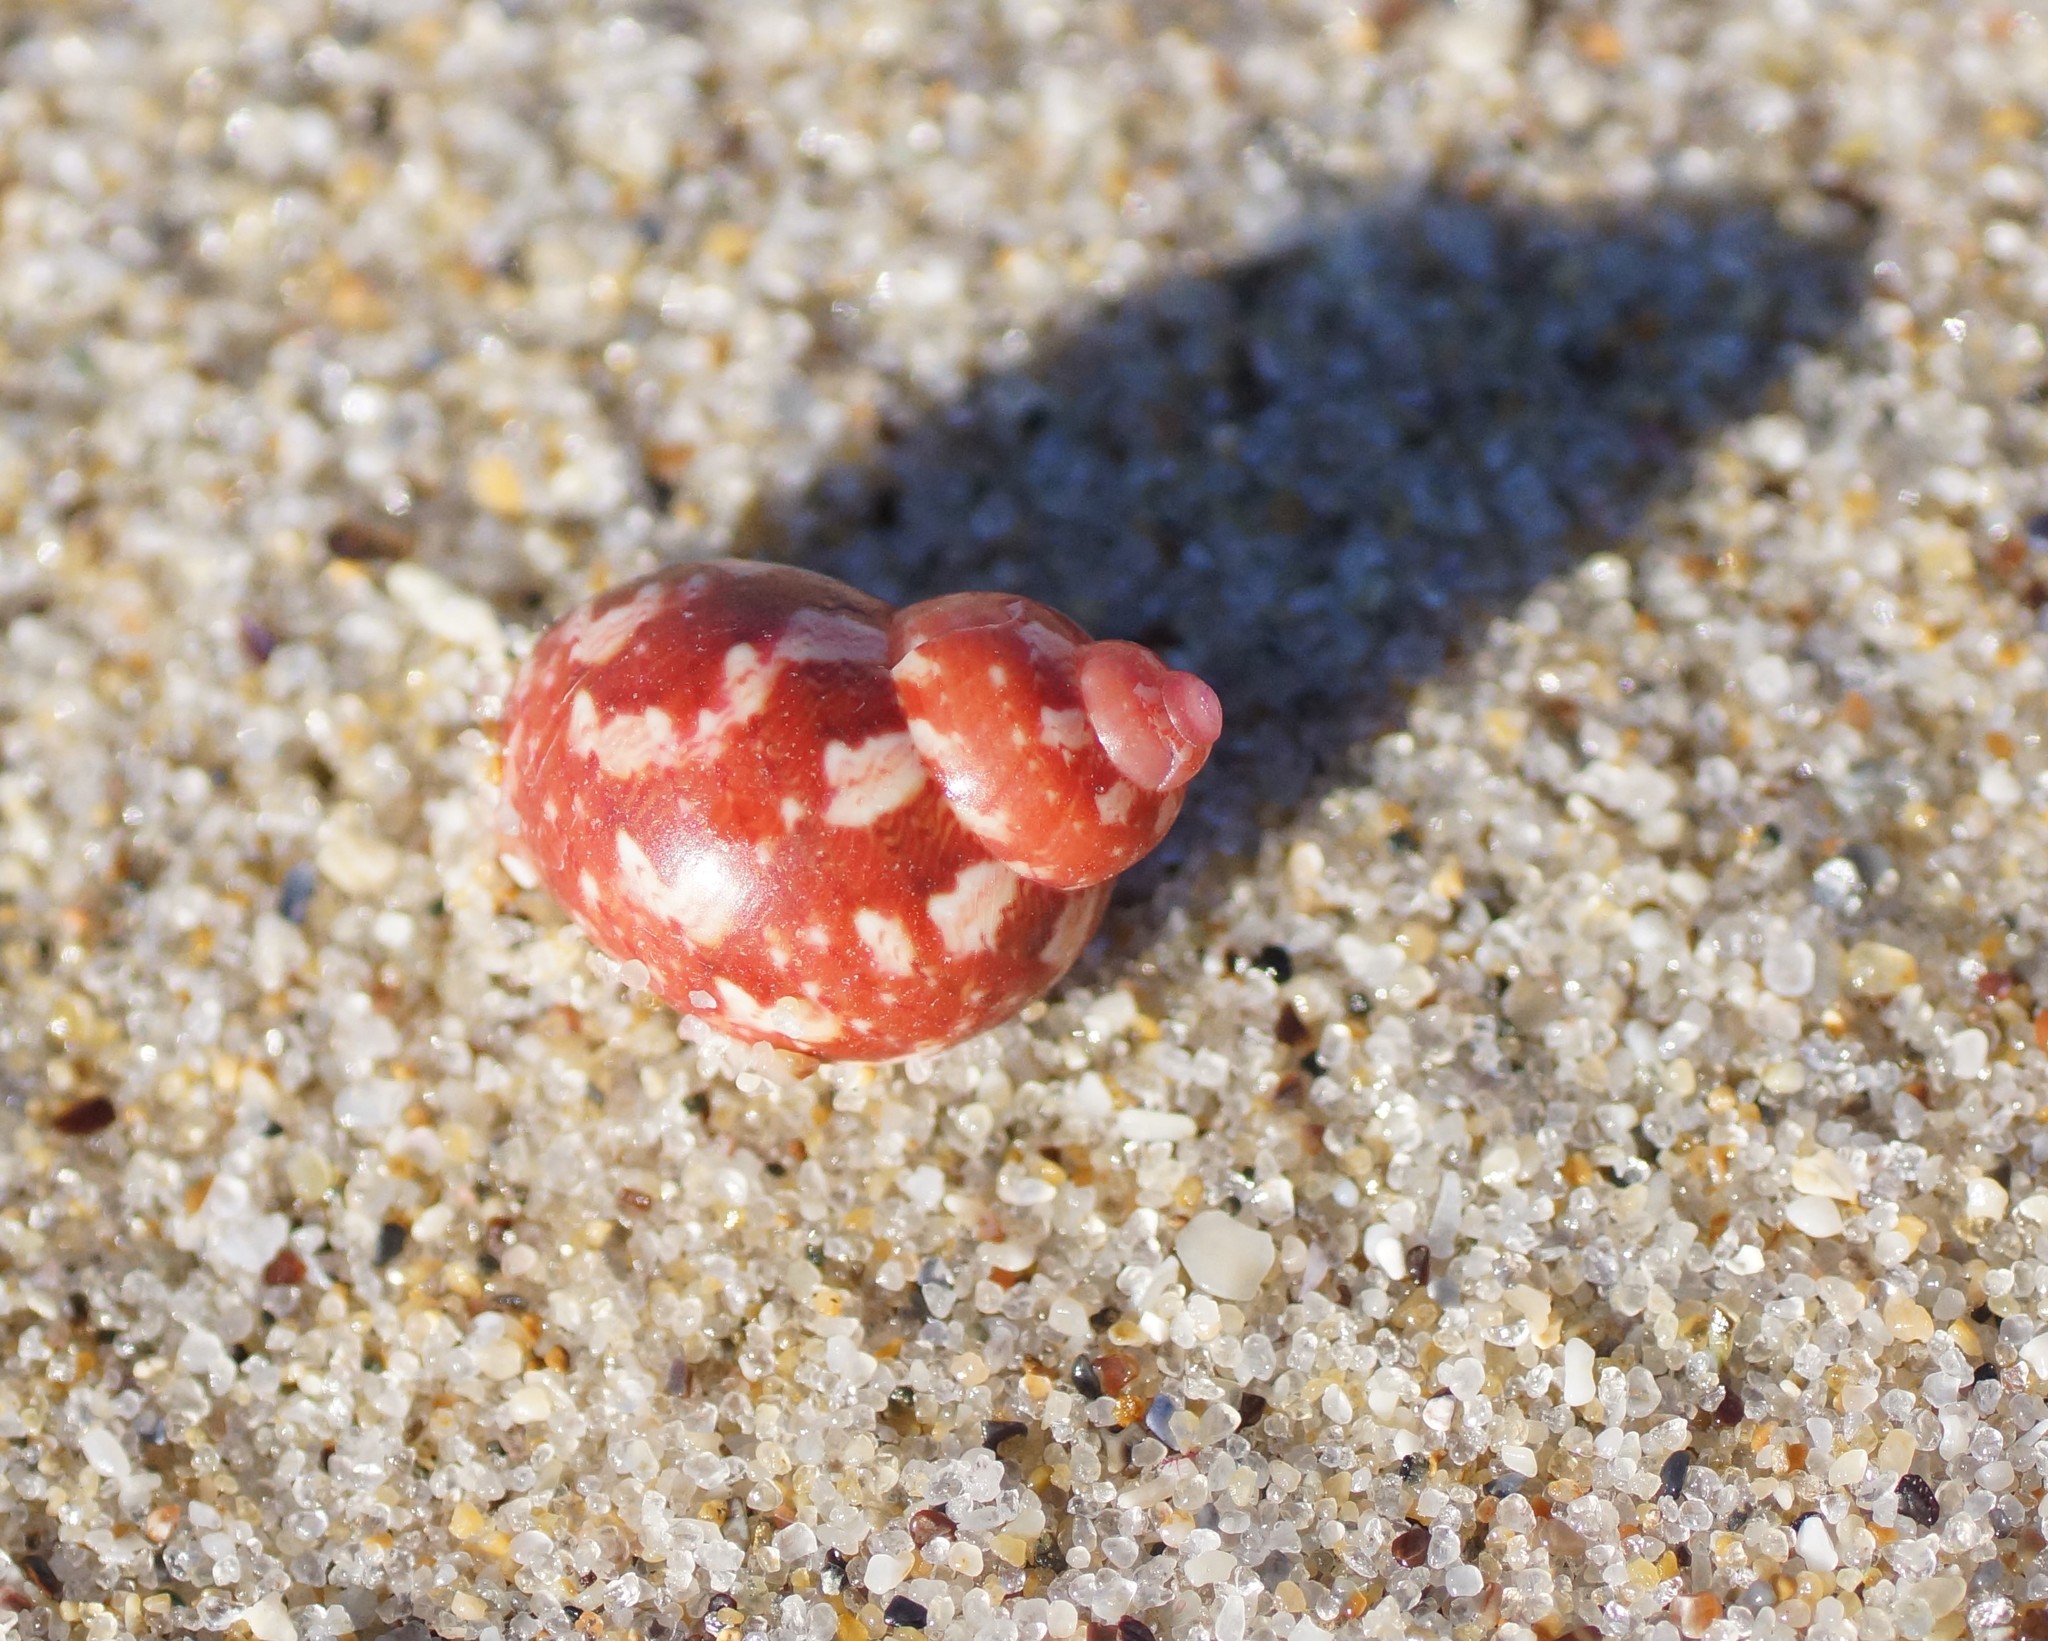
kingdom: Animalia
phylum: Mollusca
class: Gastropoda
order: Trochida
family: Phasianellidae
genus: Phasianella
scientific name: Phasianella ventricosa
